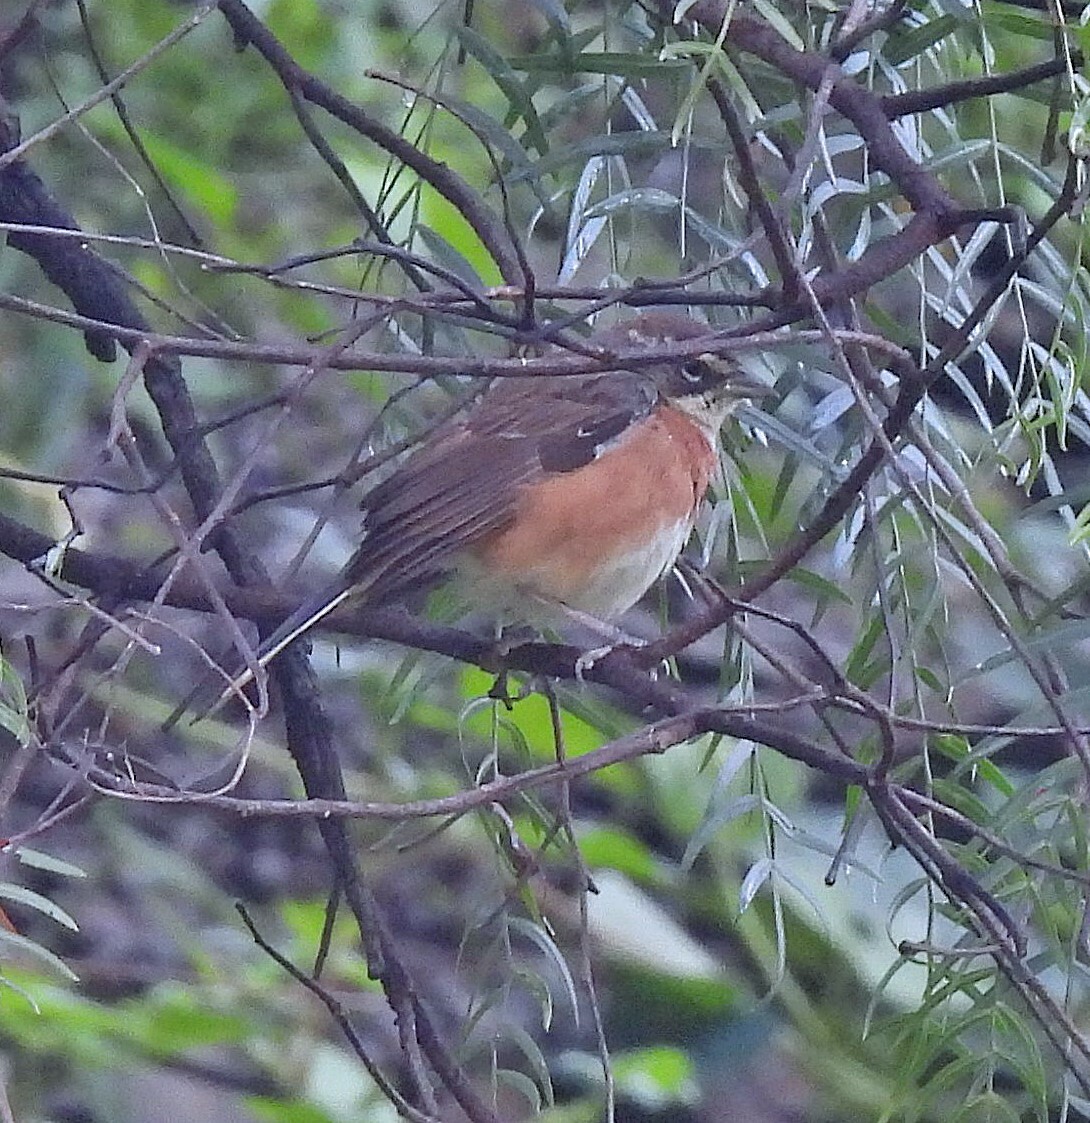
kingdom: Animalia
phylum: Chordata
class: Aves
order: Passeriformes
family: Thraupidae
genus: Poospiza
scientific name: Poospiza boliviana
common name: Bolivian warbling finch
